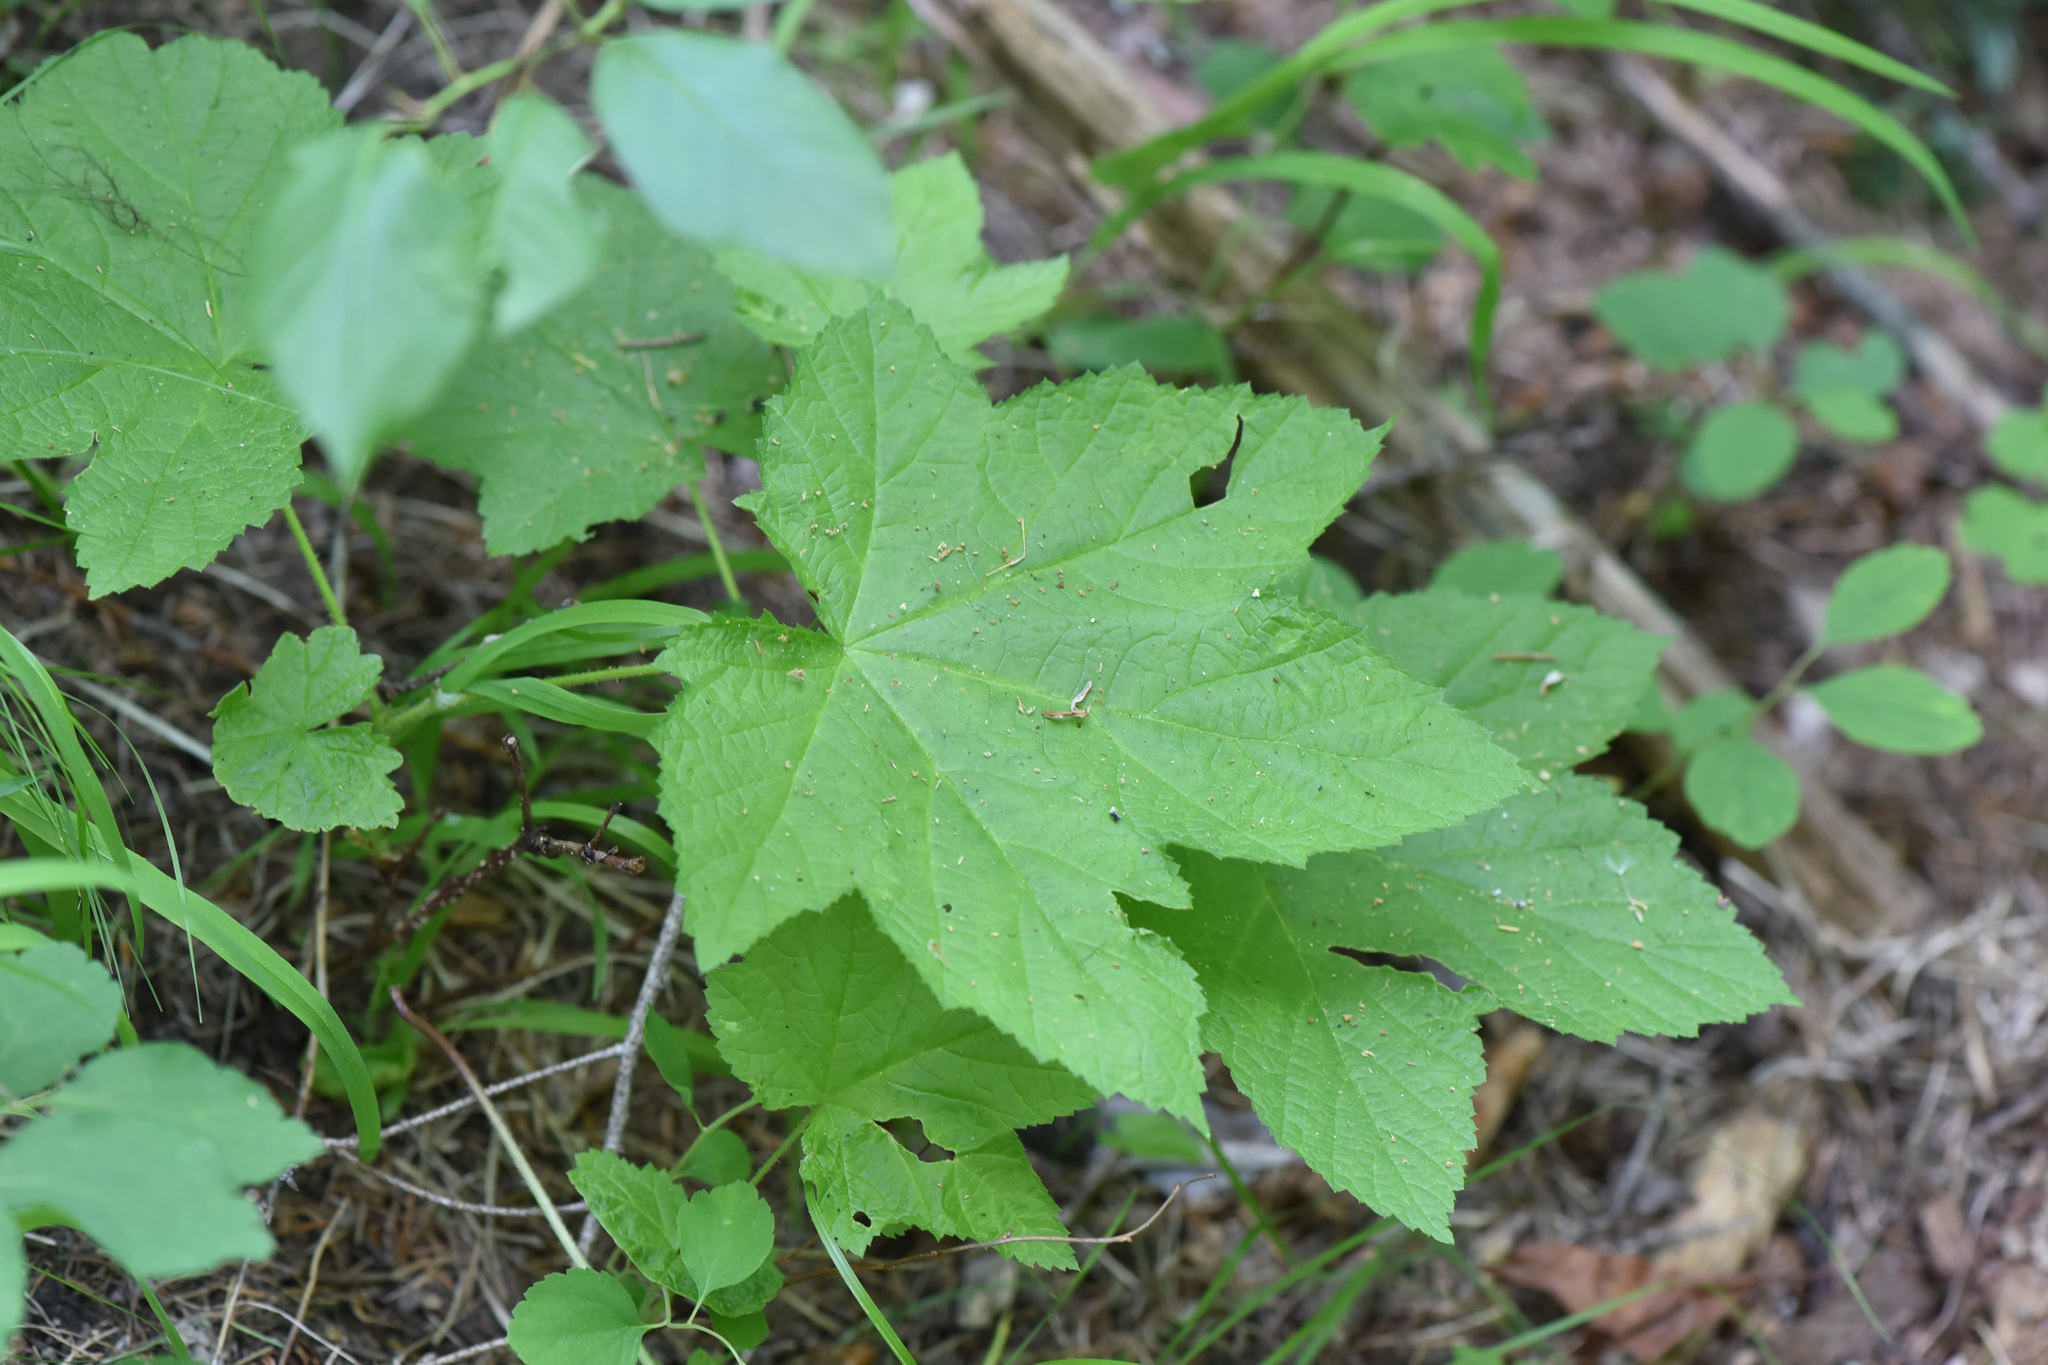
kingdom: Plantae
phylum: Tracheophyta
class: Magnoliopsida
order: Rosales
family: Rosaceae
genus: Rubus
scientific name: Rubus parviflorus
